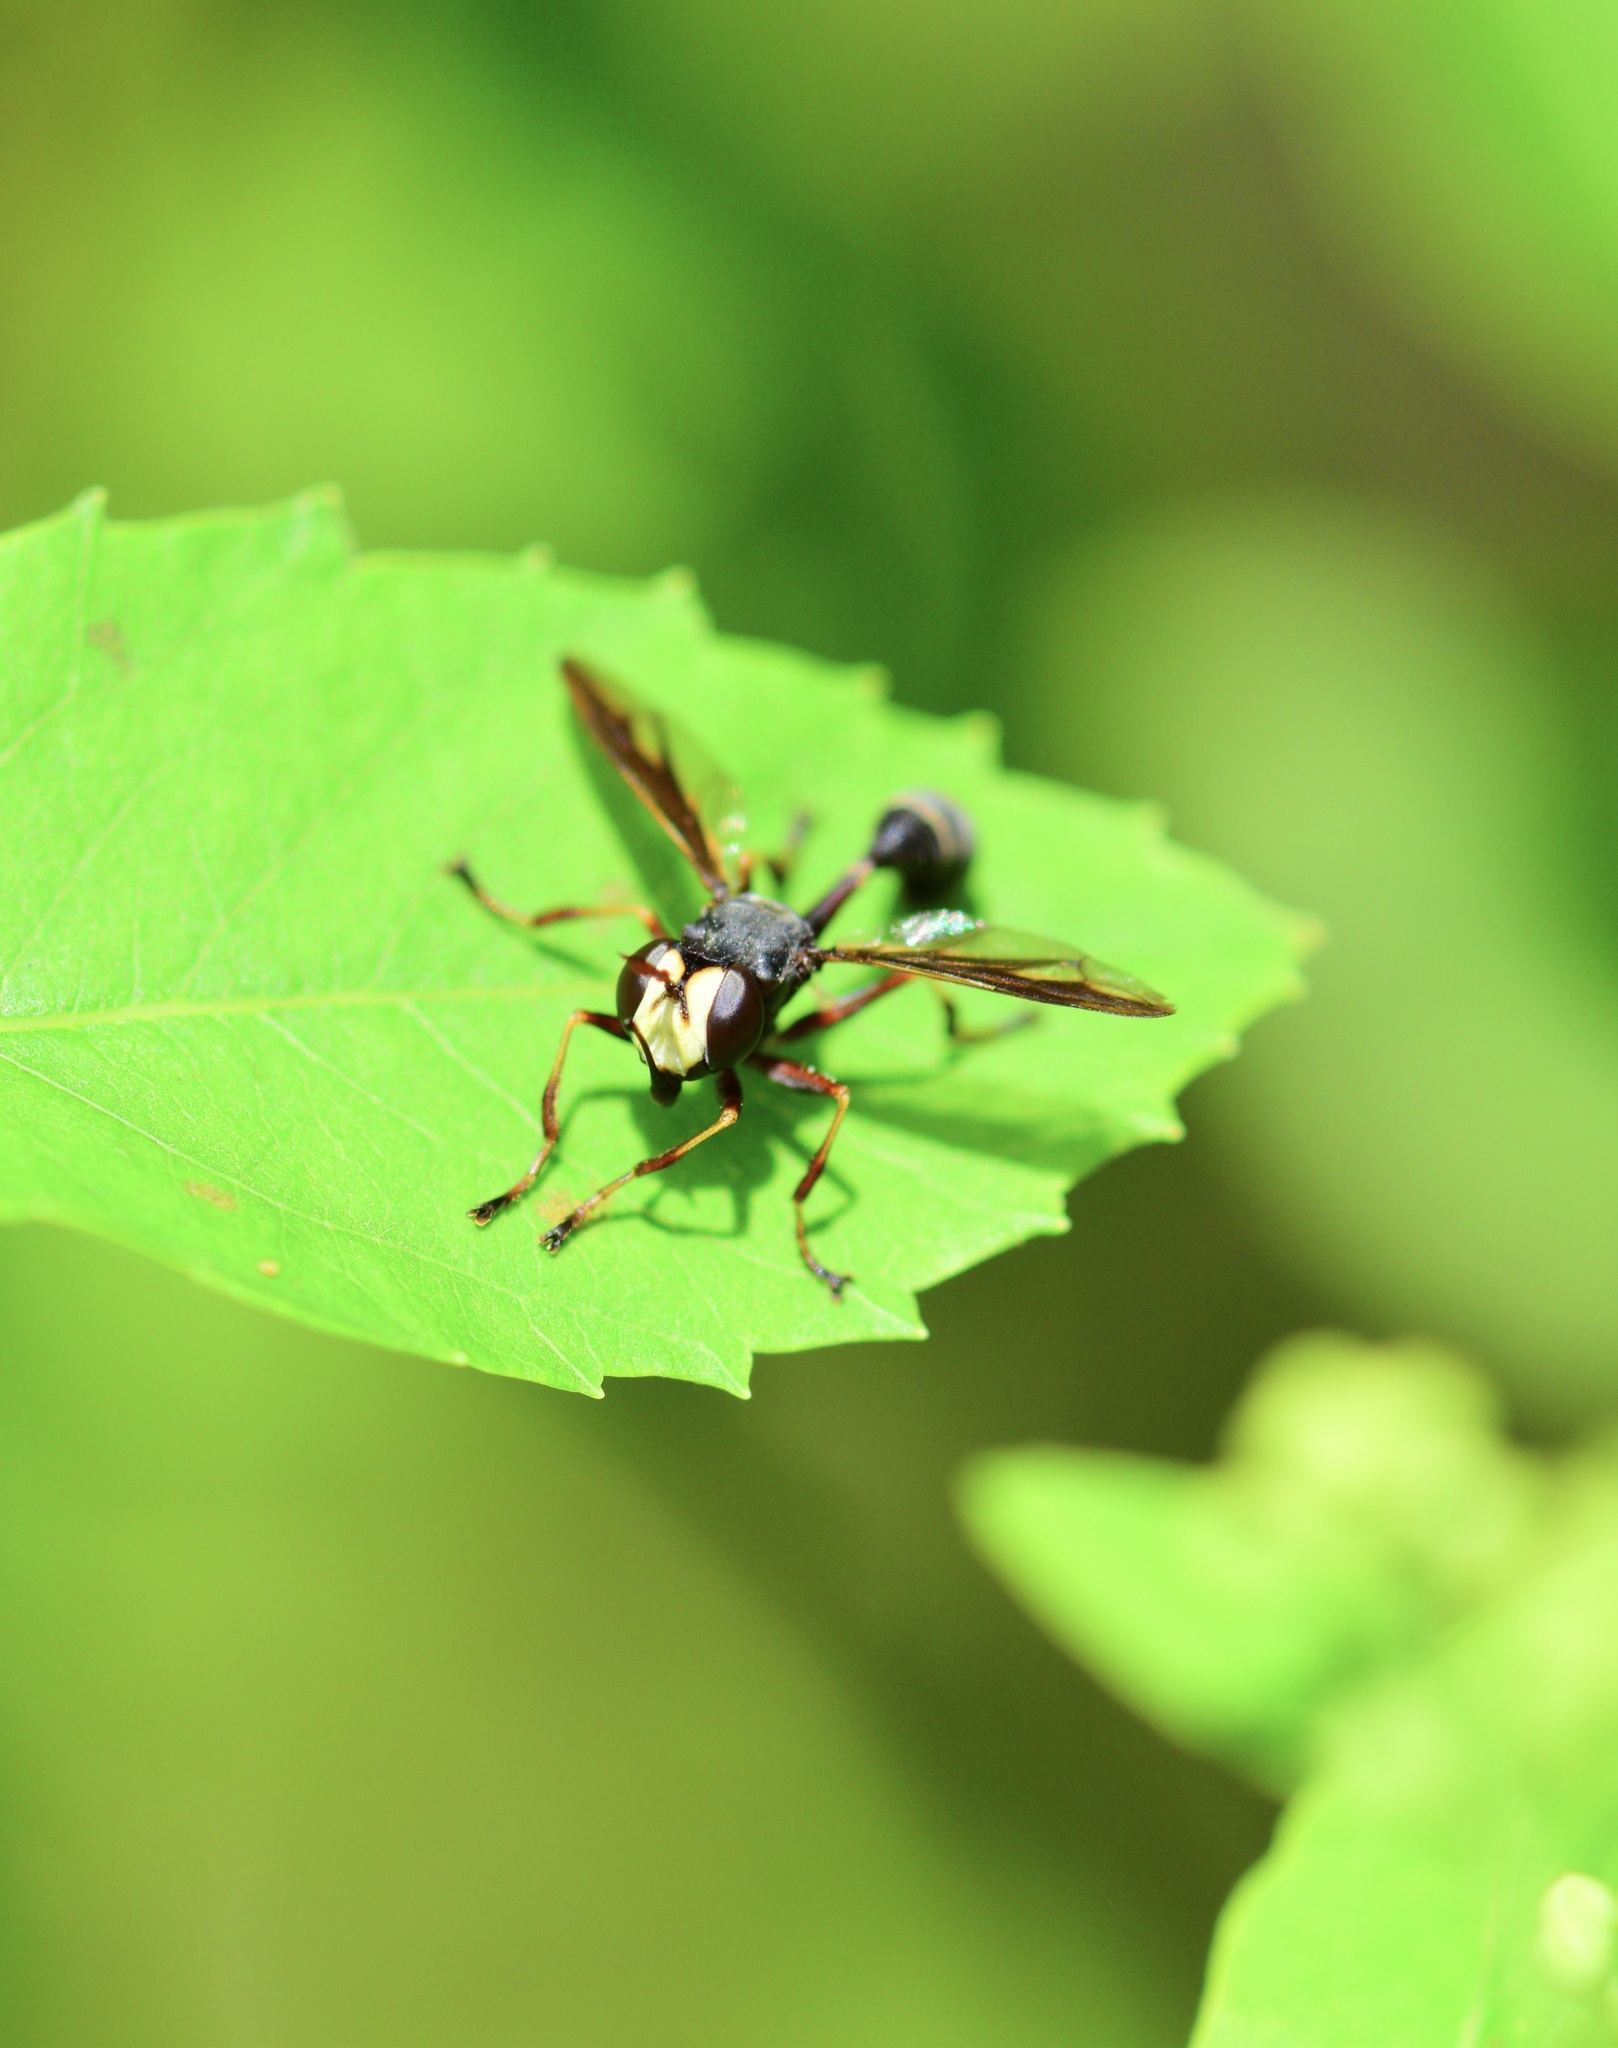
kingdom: Animalia
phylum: Arthropoda
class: Insecta
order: Diptera
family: Conopidae
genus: Physocephala
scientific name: Physocephala furcillata
